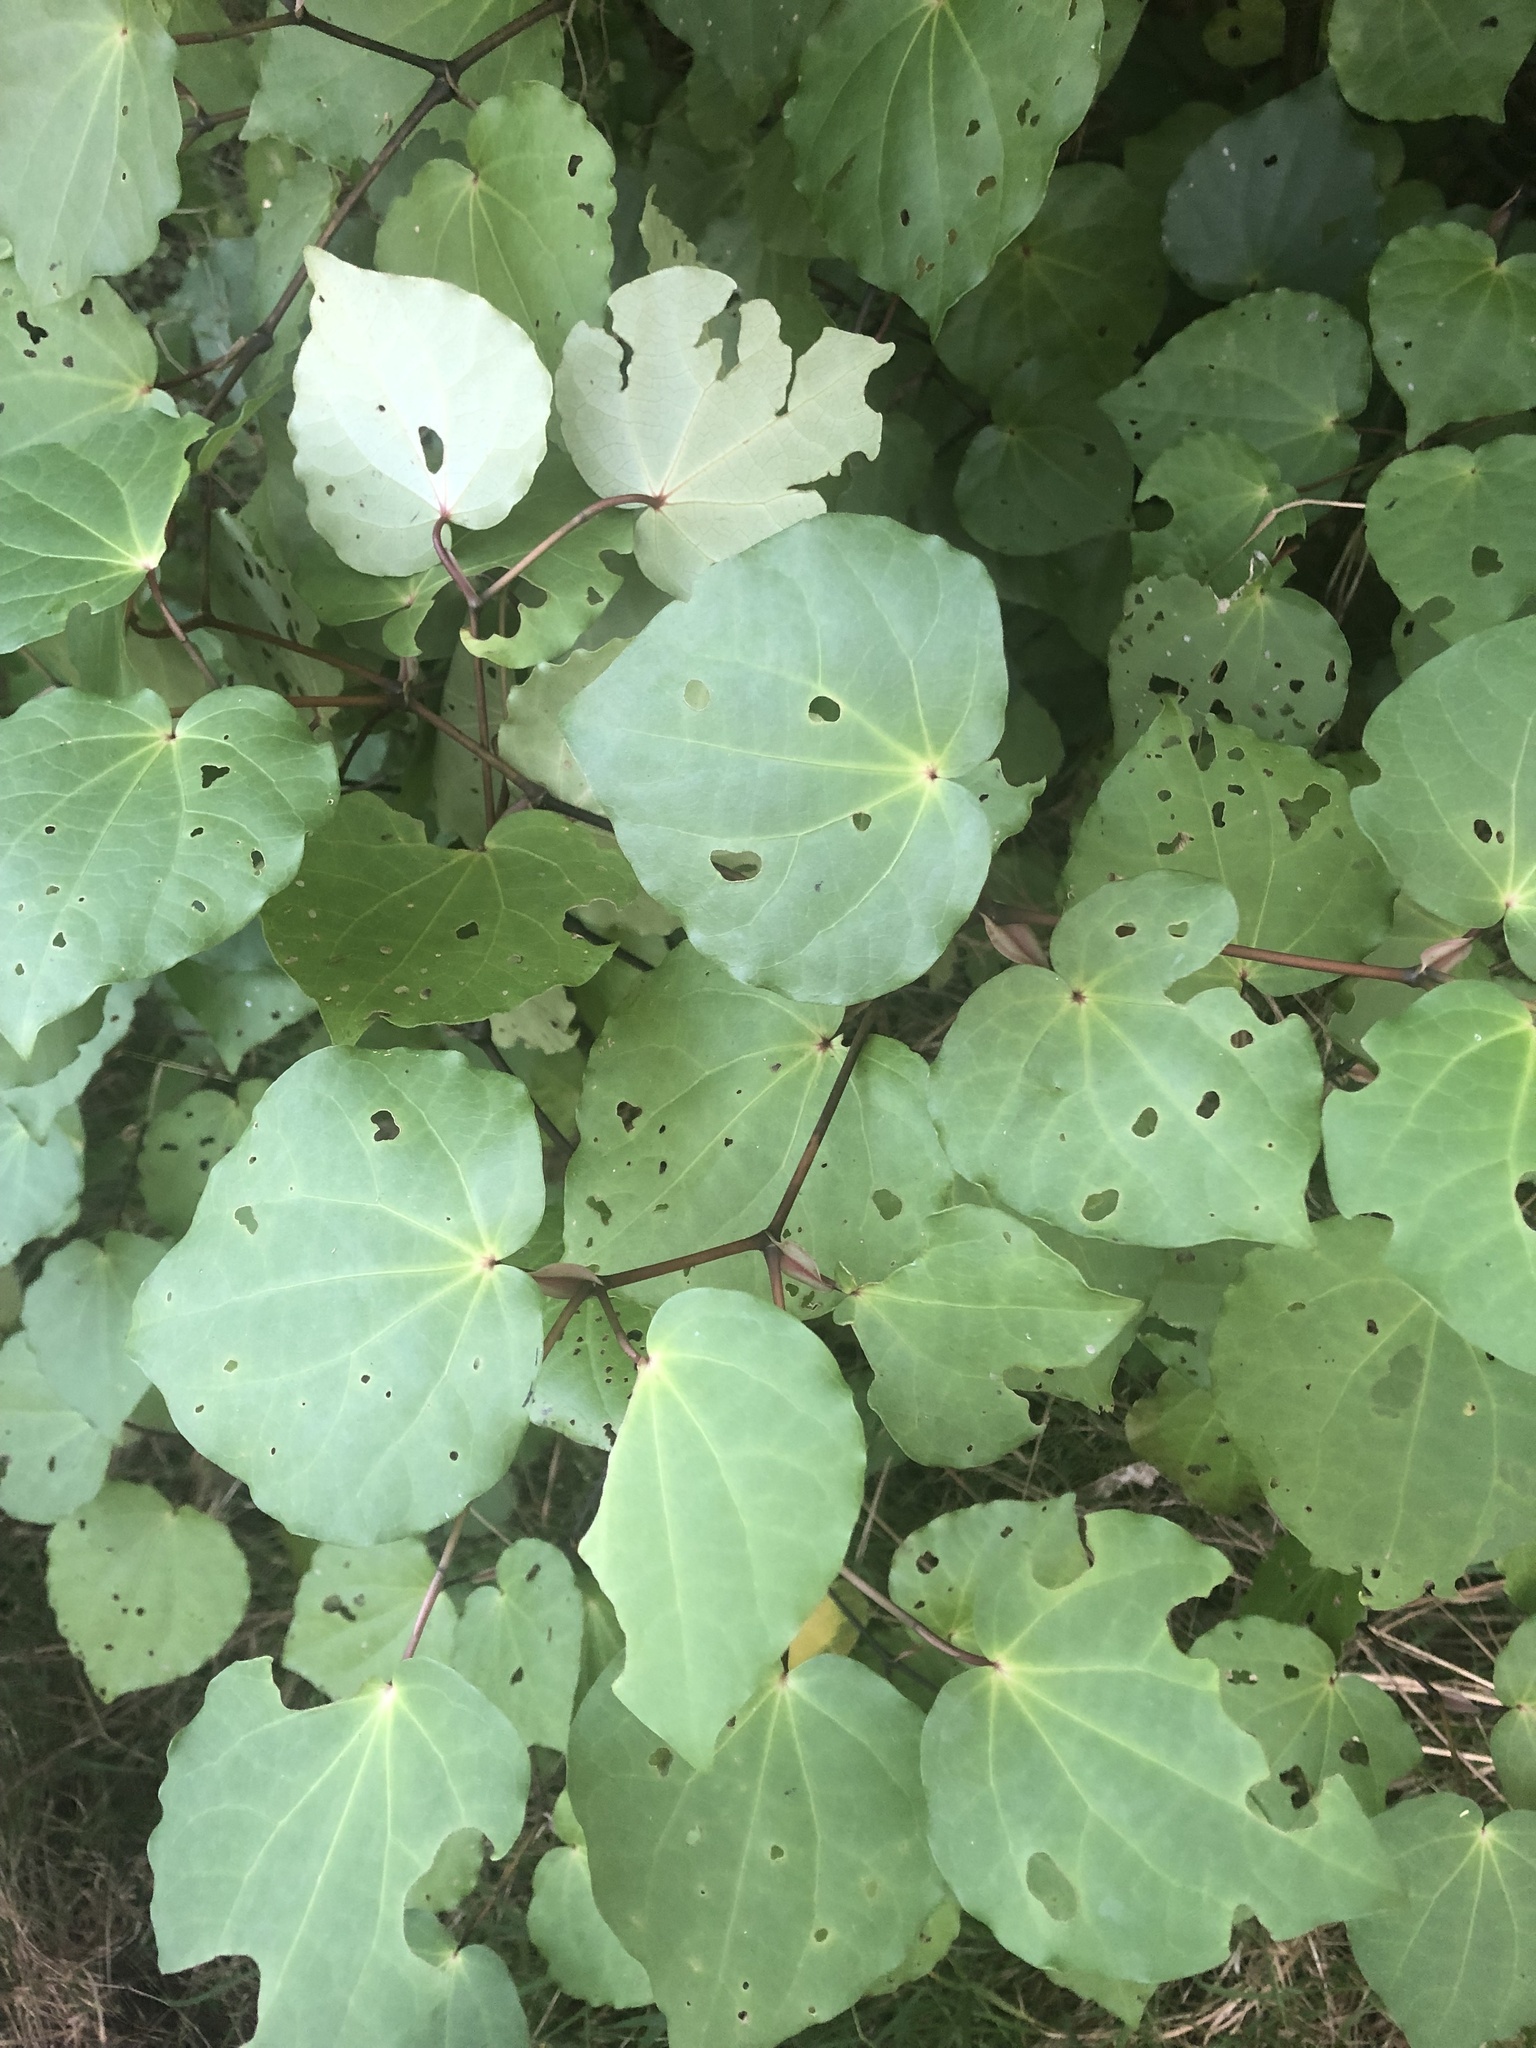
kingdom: Plantae
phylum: Tracheophyta
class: Magnoliopsida
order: Piperales
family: Piperaceae
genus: Macropiper
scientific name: Macropiper excelsum
